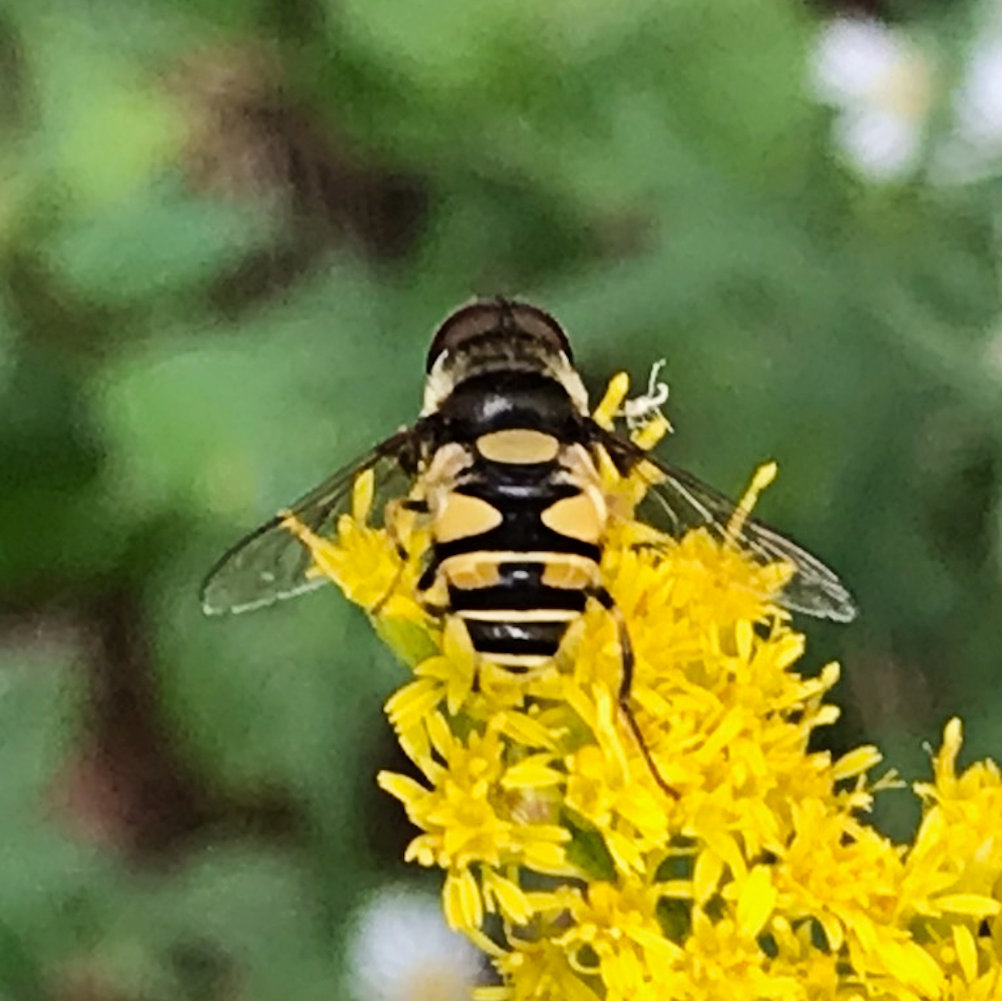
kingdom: Animalia
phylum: Arthropoda
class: Insecta
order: Diptera
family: Syrphidae
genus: Eristalis
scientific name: Eristalis transversa
